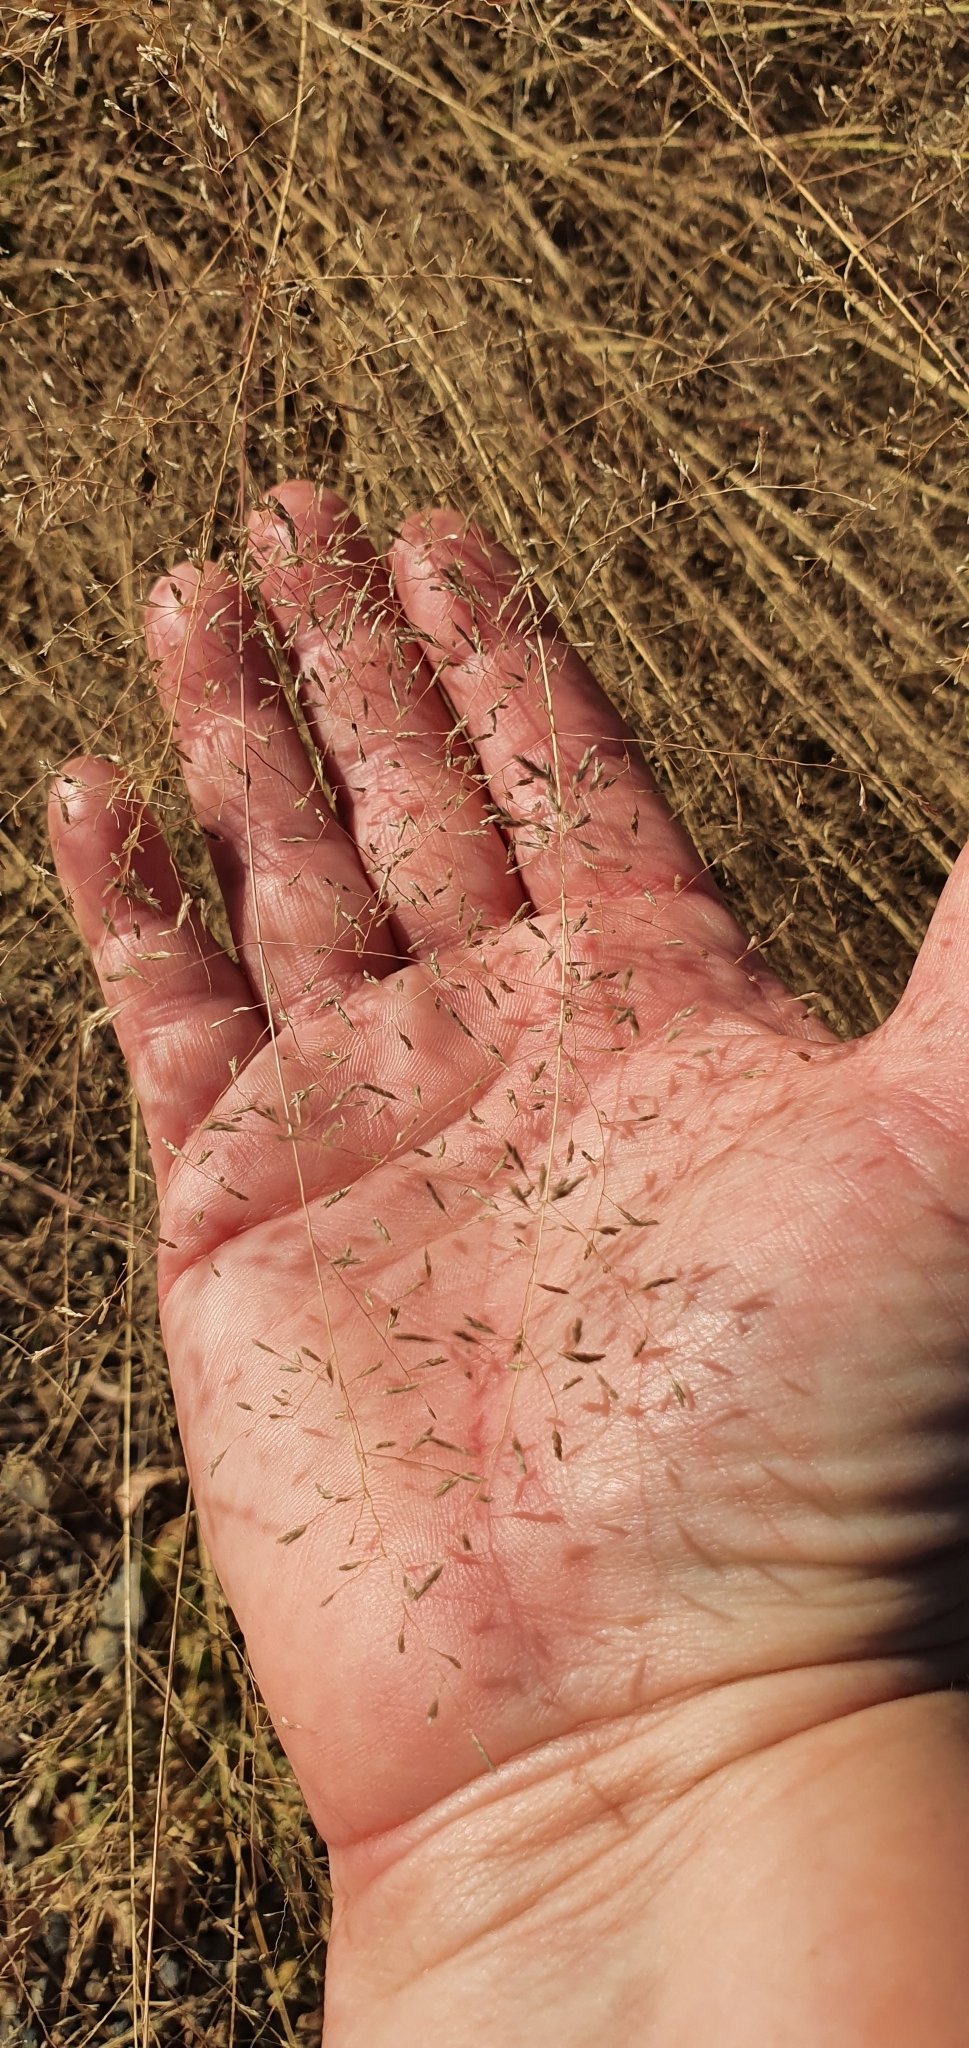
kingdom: Plantae
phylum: Tracheophyta
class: Liliopsida
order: Poales
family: Poaceae
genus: Eragrostis
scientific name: Eragrostis leptostachya
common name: Australian lovegrass
